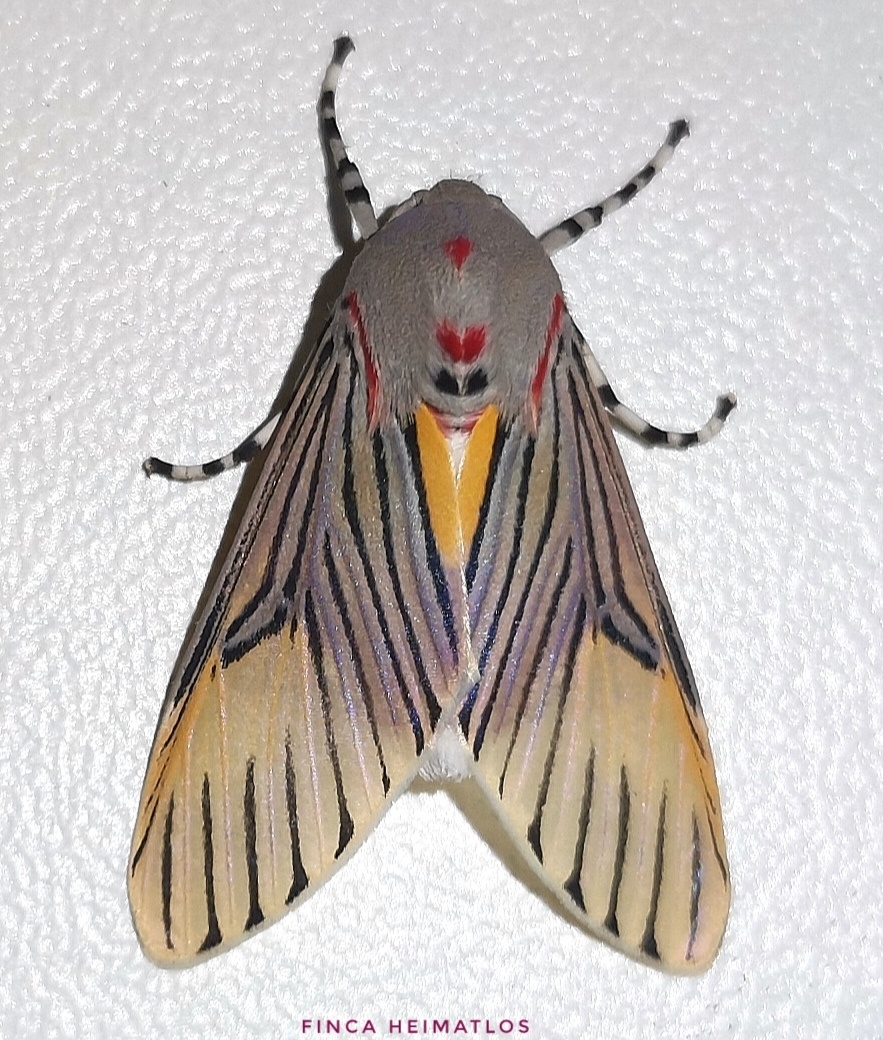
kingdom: Animalia
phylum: Arthropoda
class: Insecta
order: Lepidoptera
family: Erebidae
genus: Idalus
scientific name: Idalus sublineata
